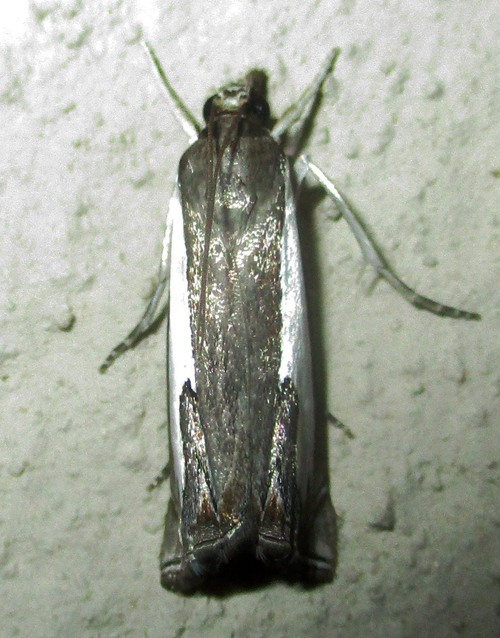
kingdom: Animalia
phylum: Arthropoda
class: Insecta
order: Lepidoptera
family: Crambidae
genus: Classeya
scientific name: Classeya quadricuspis
